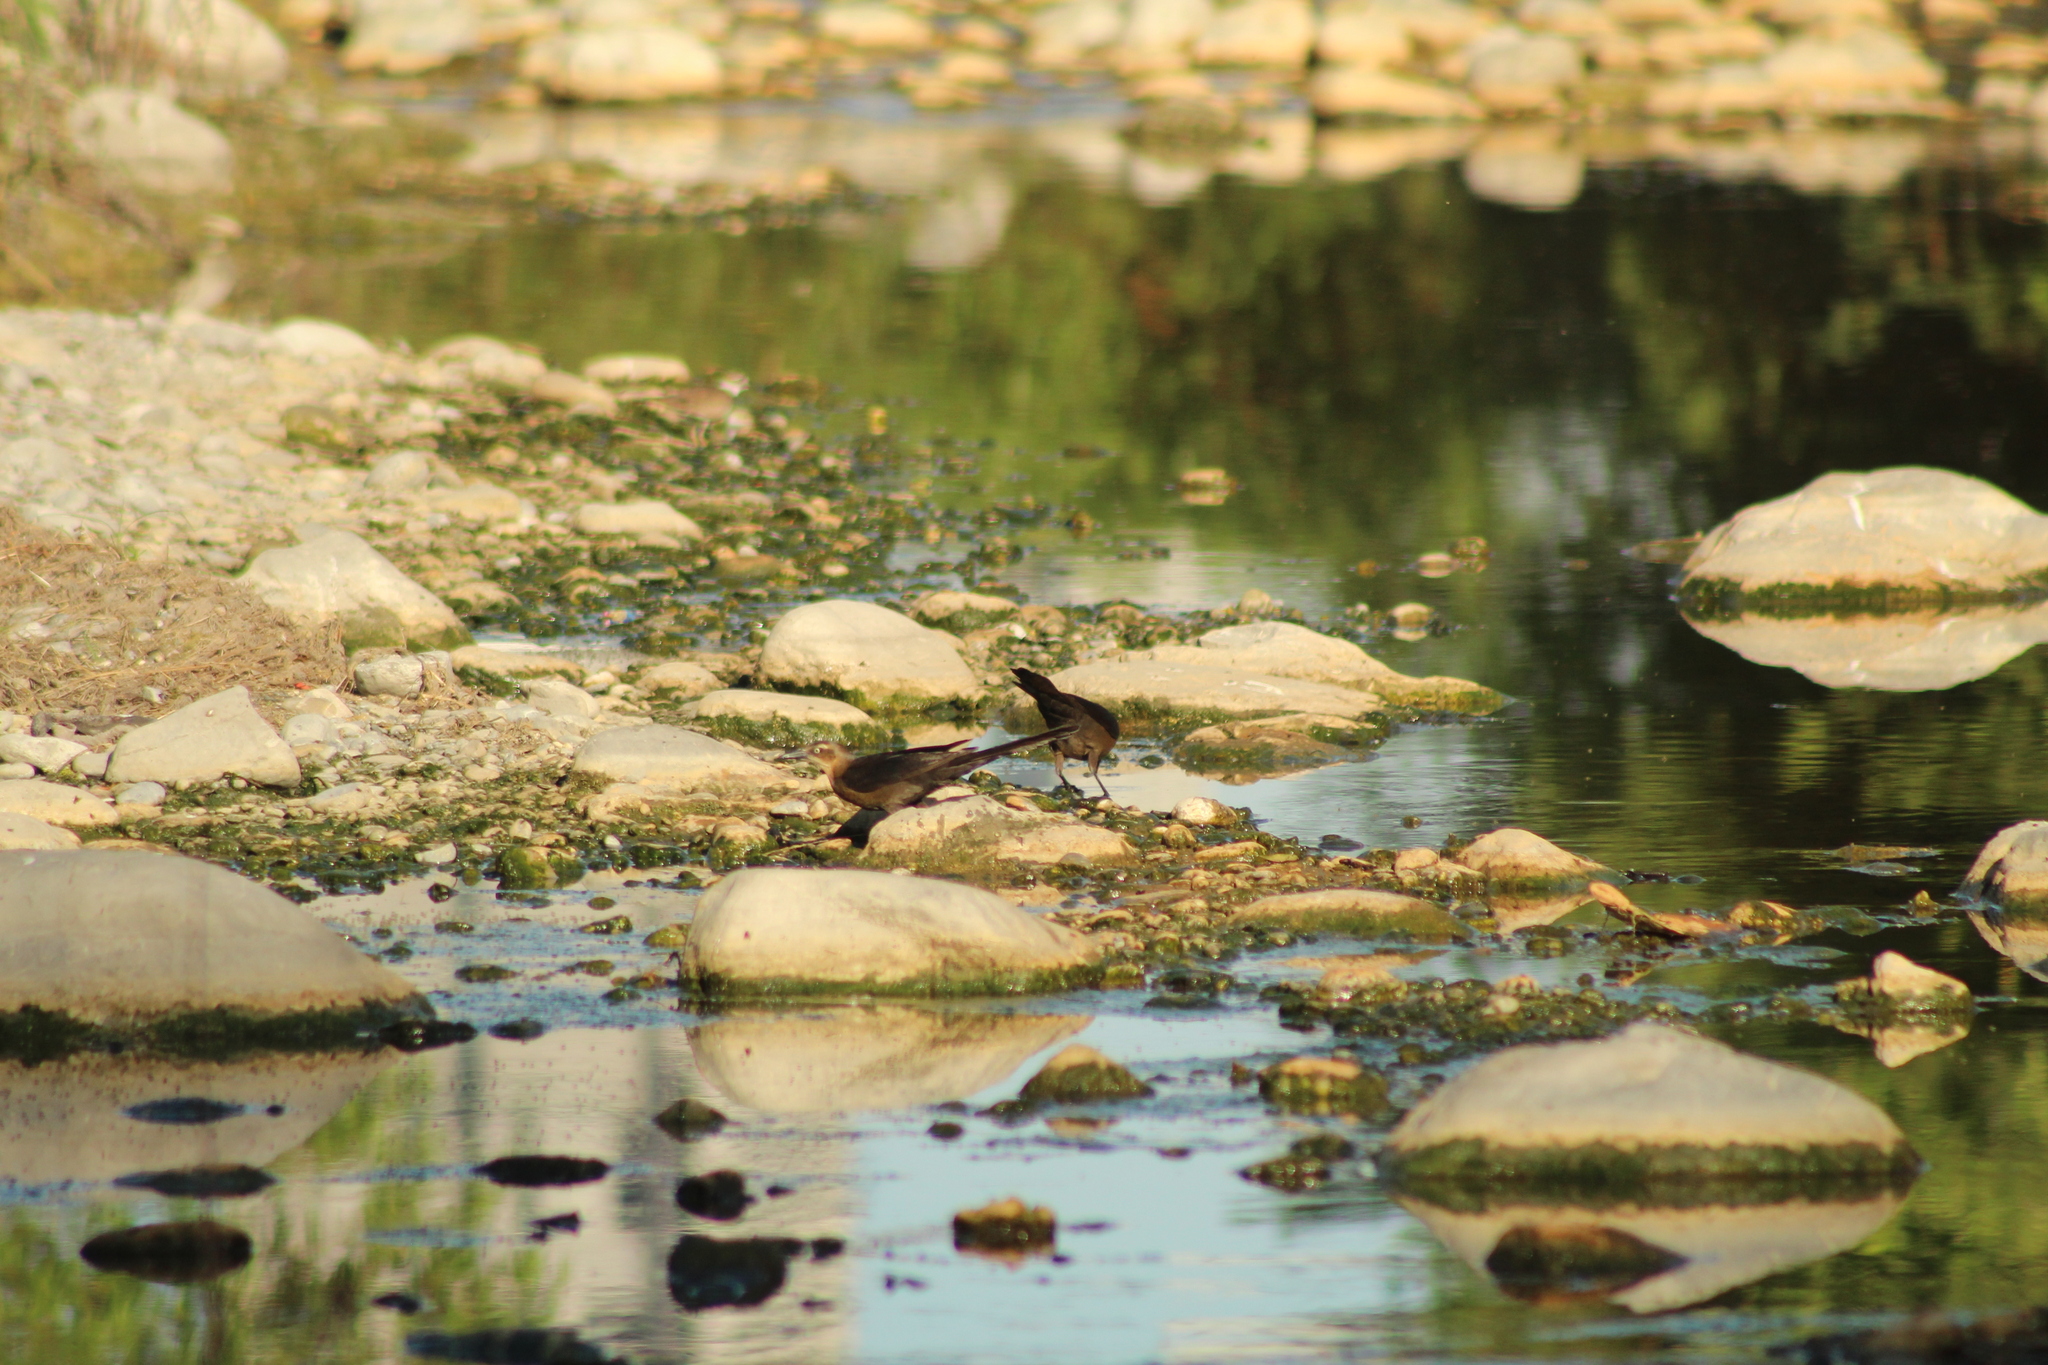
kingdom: Animalia
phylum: Chordata
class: Aves
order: Passeriformes
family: Icteridae
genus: Quiscalus
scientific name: Quiscalus mexicanus
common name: Great-tailed grackle
